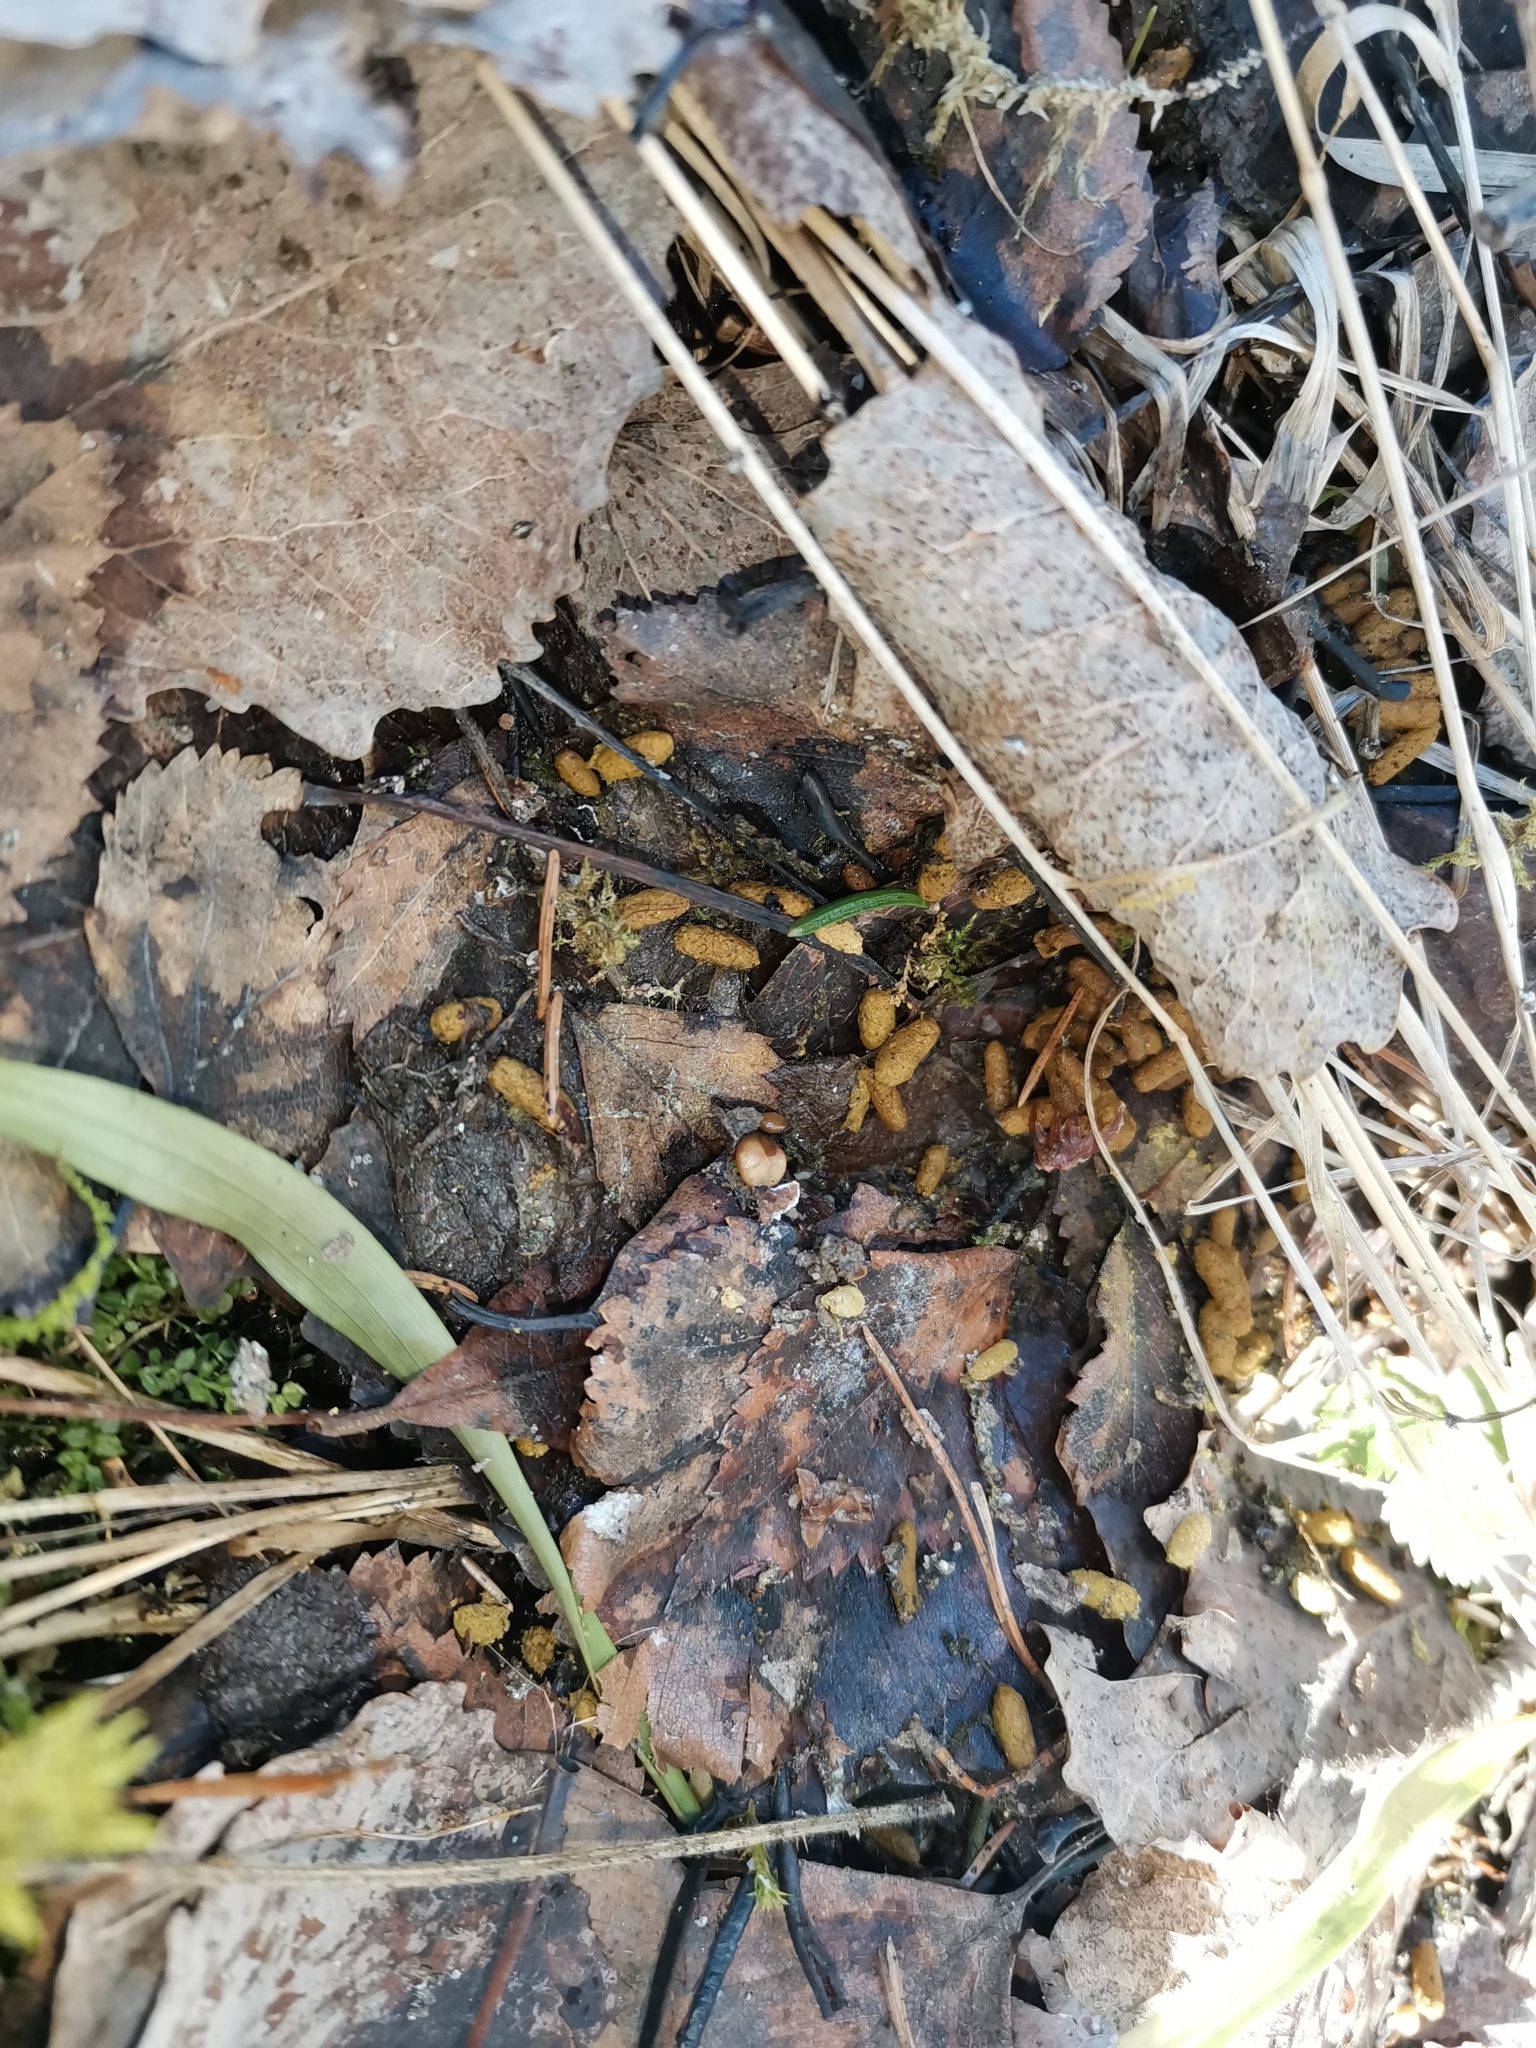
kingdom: Animalia
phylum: Chordata
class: Mammalia
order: Rodentia
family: Sciuridae
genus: Pteromys
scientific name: Pteromys volans
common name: Siberian flying squirrel
